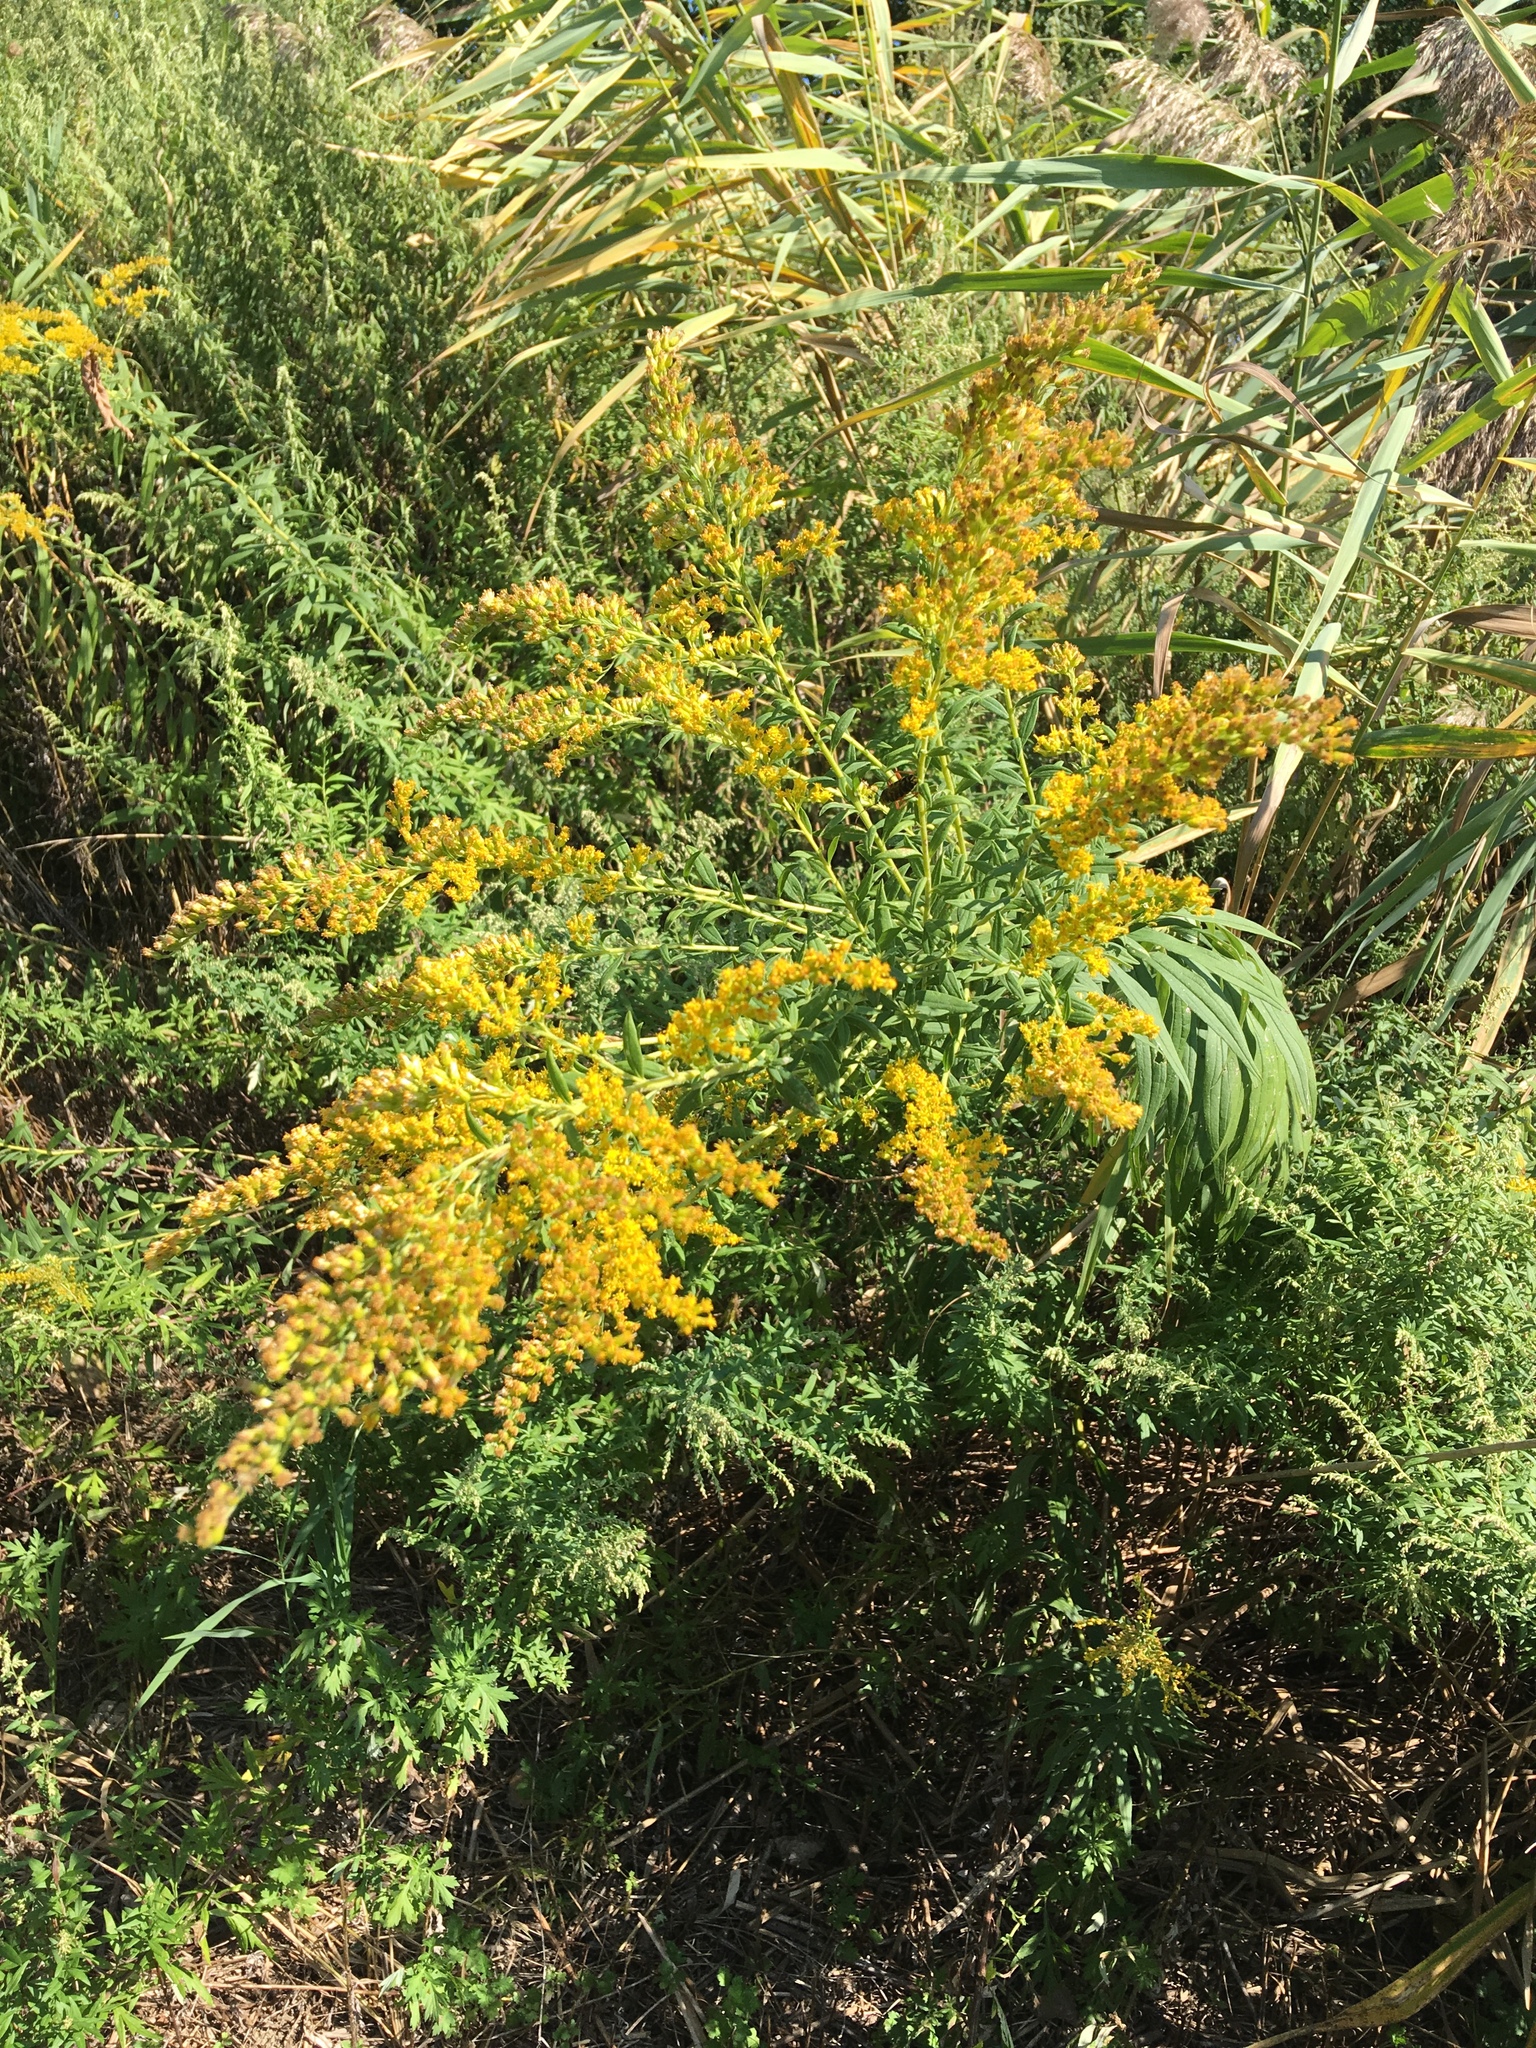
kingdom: Plantae
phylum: Tracheophyta
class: Magnoliopsida
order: Asterales
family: Asteraceae
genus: Solidago
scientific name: Solidago altissima
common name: Late goldenrod
